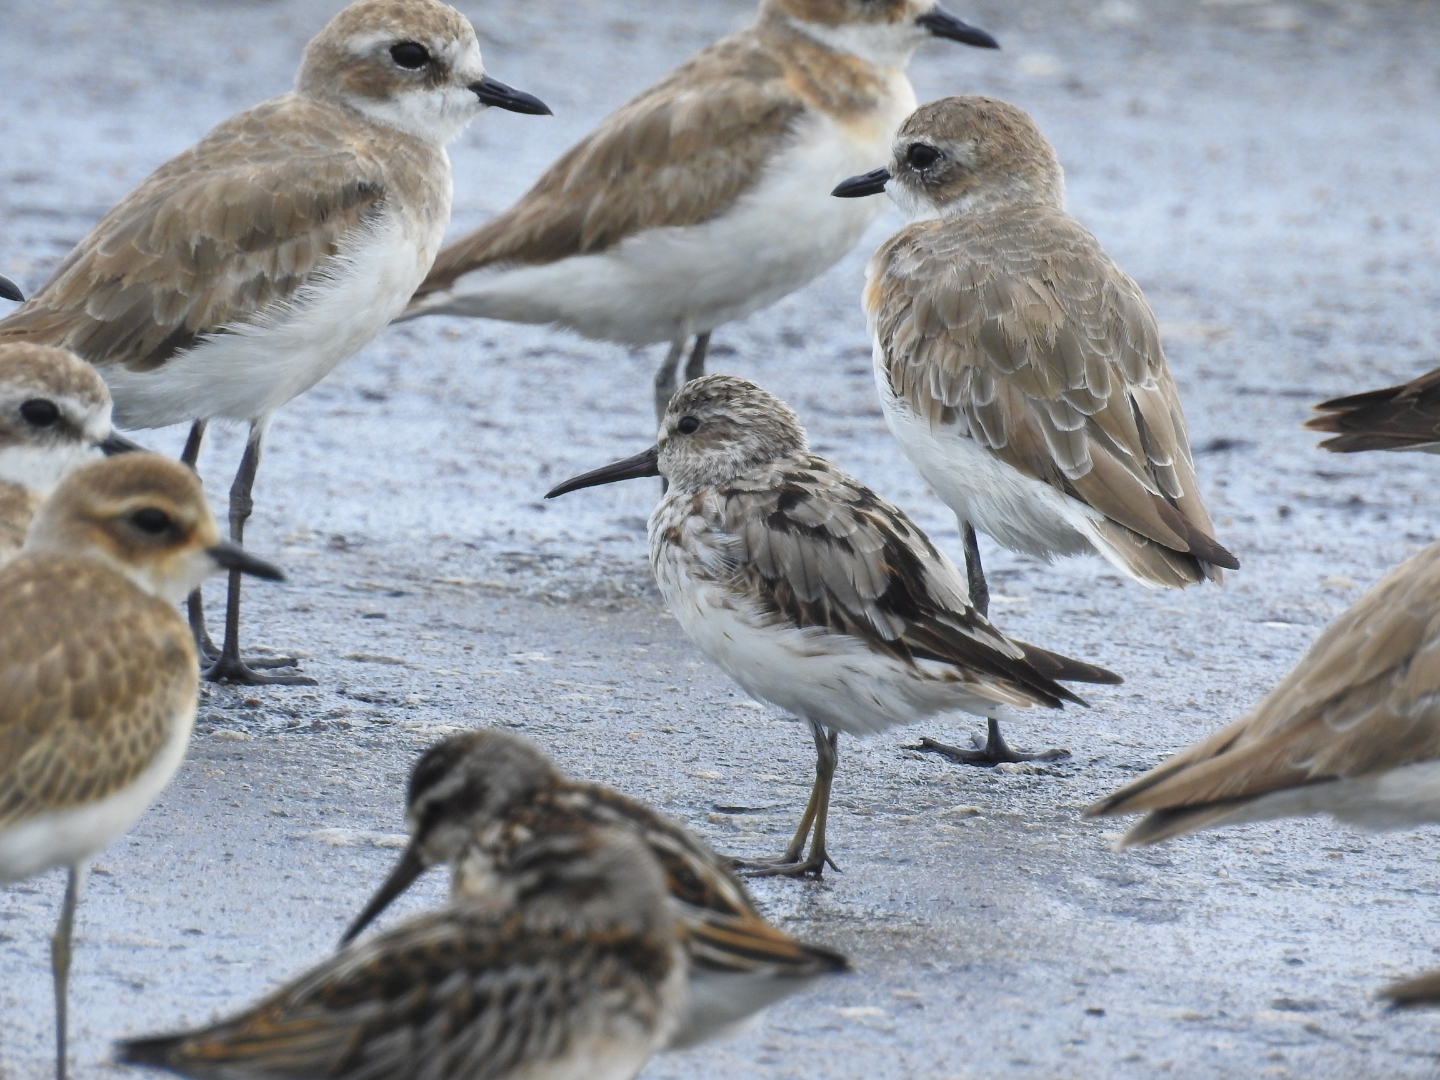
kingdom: Animalia
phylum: Chordata
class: Aves
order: Charadriiformes
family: Scolopacidae
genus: Calidris
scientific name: Calidris falcinellus
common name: Broad-billed sandpiper
